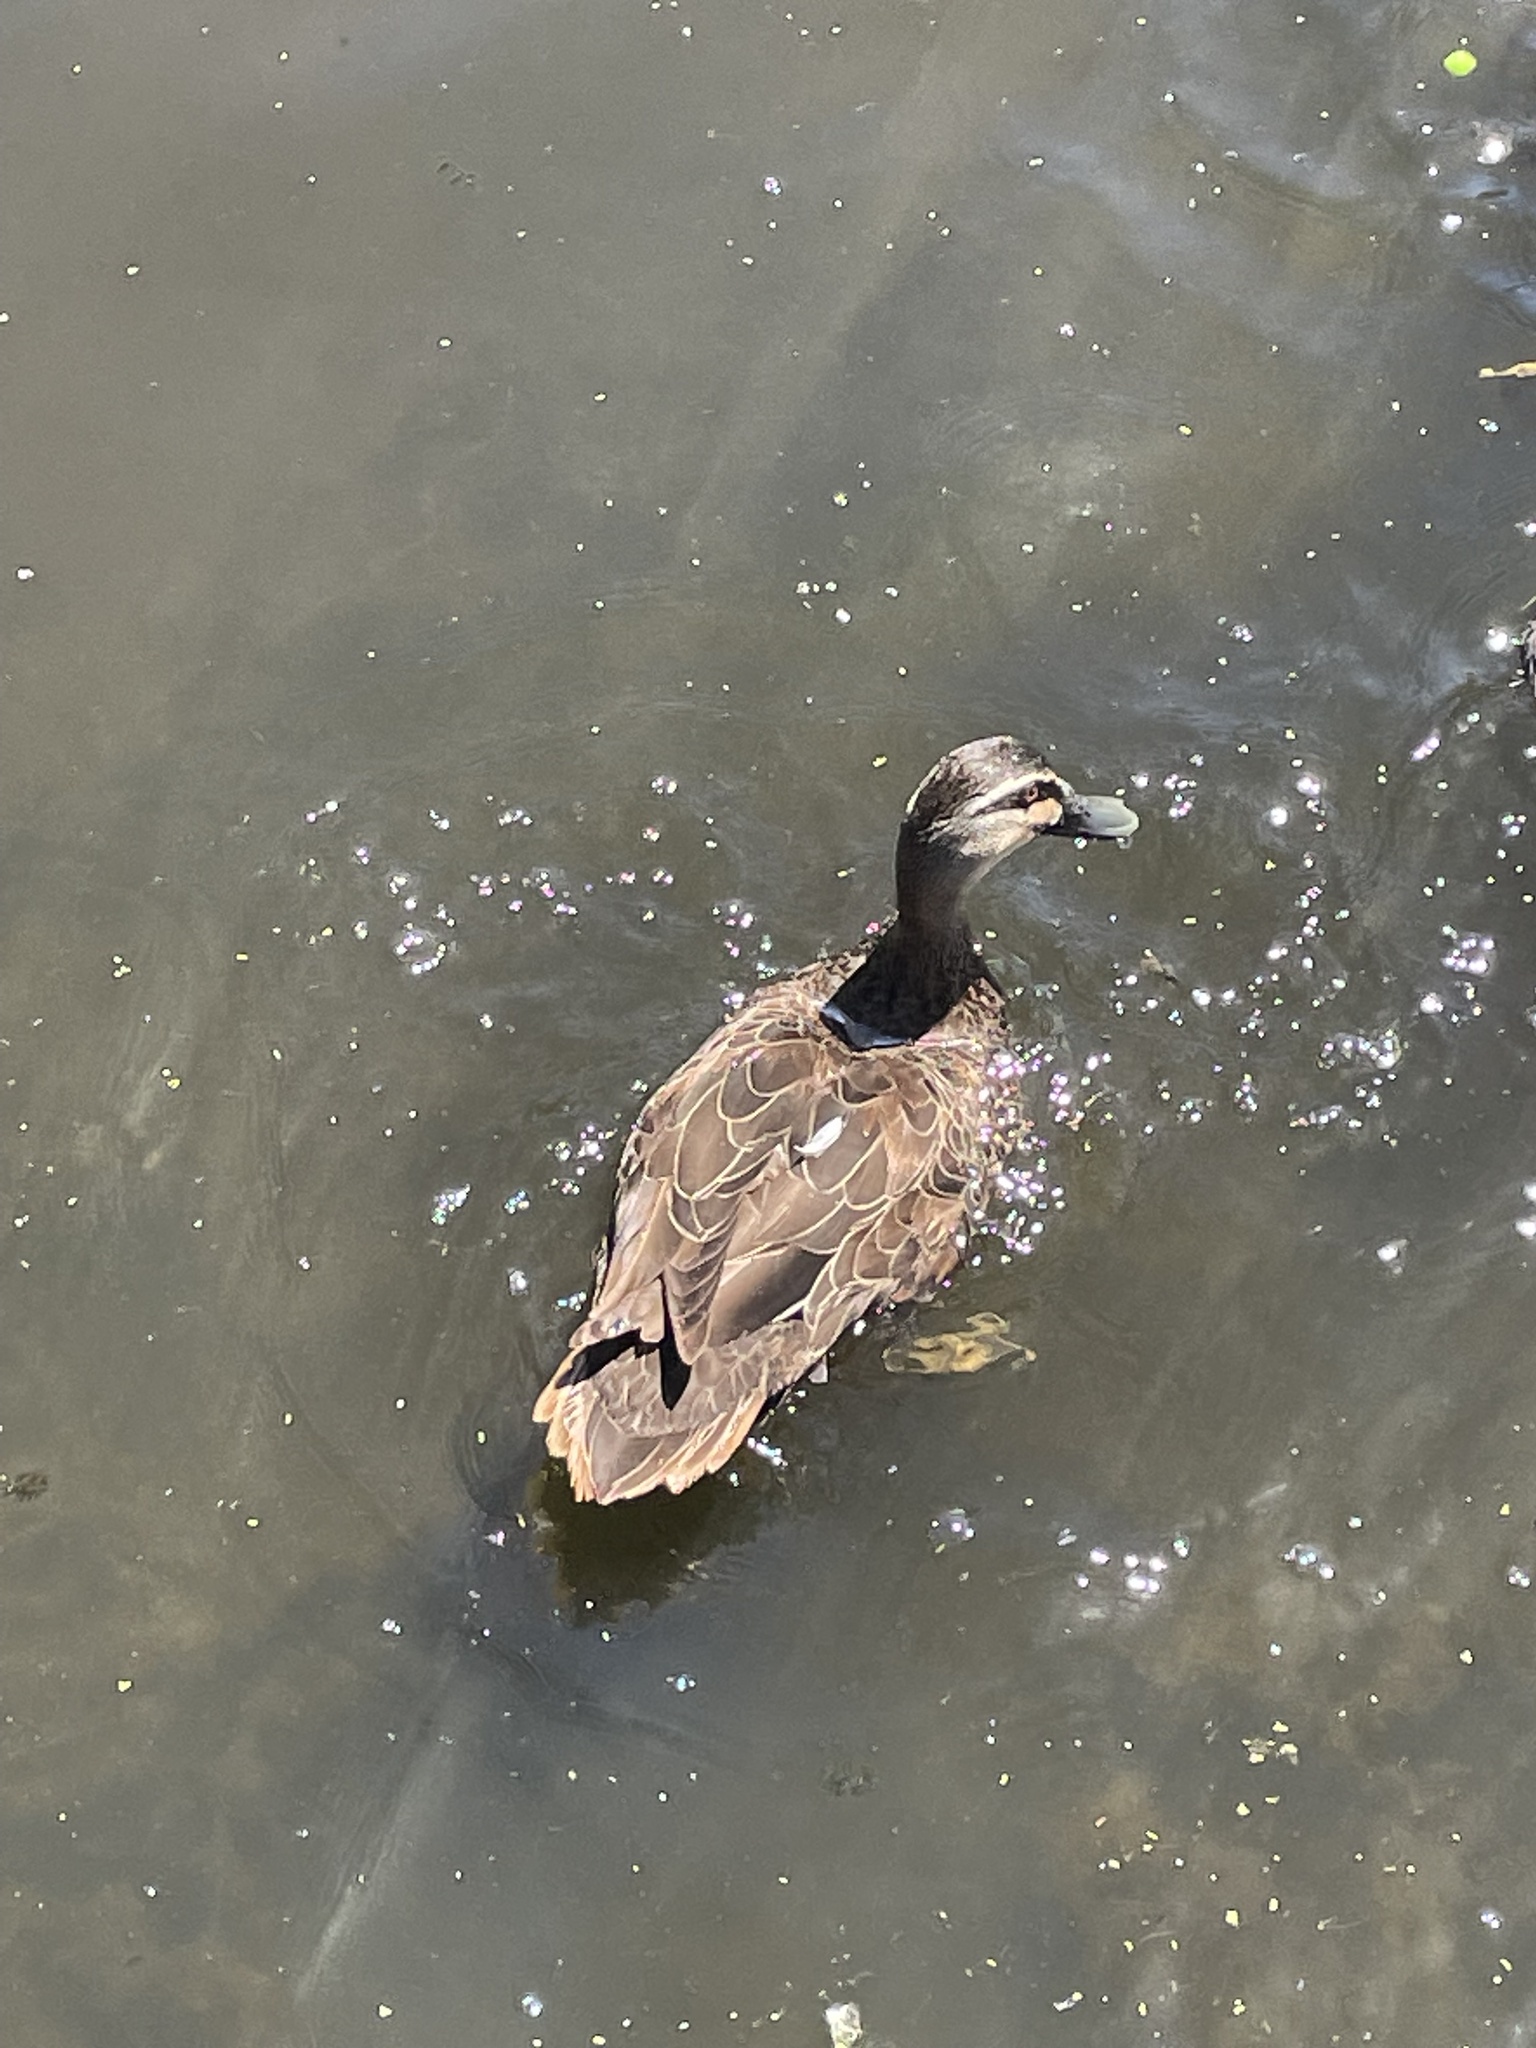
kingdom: Animalia
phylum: Chordata
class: Aves
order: Anseriformes
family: Anatidae
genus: Anas
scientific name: Anas superciliosa
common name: Pacific black duck
